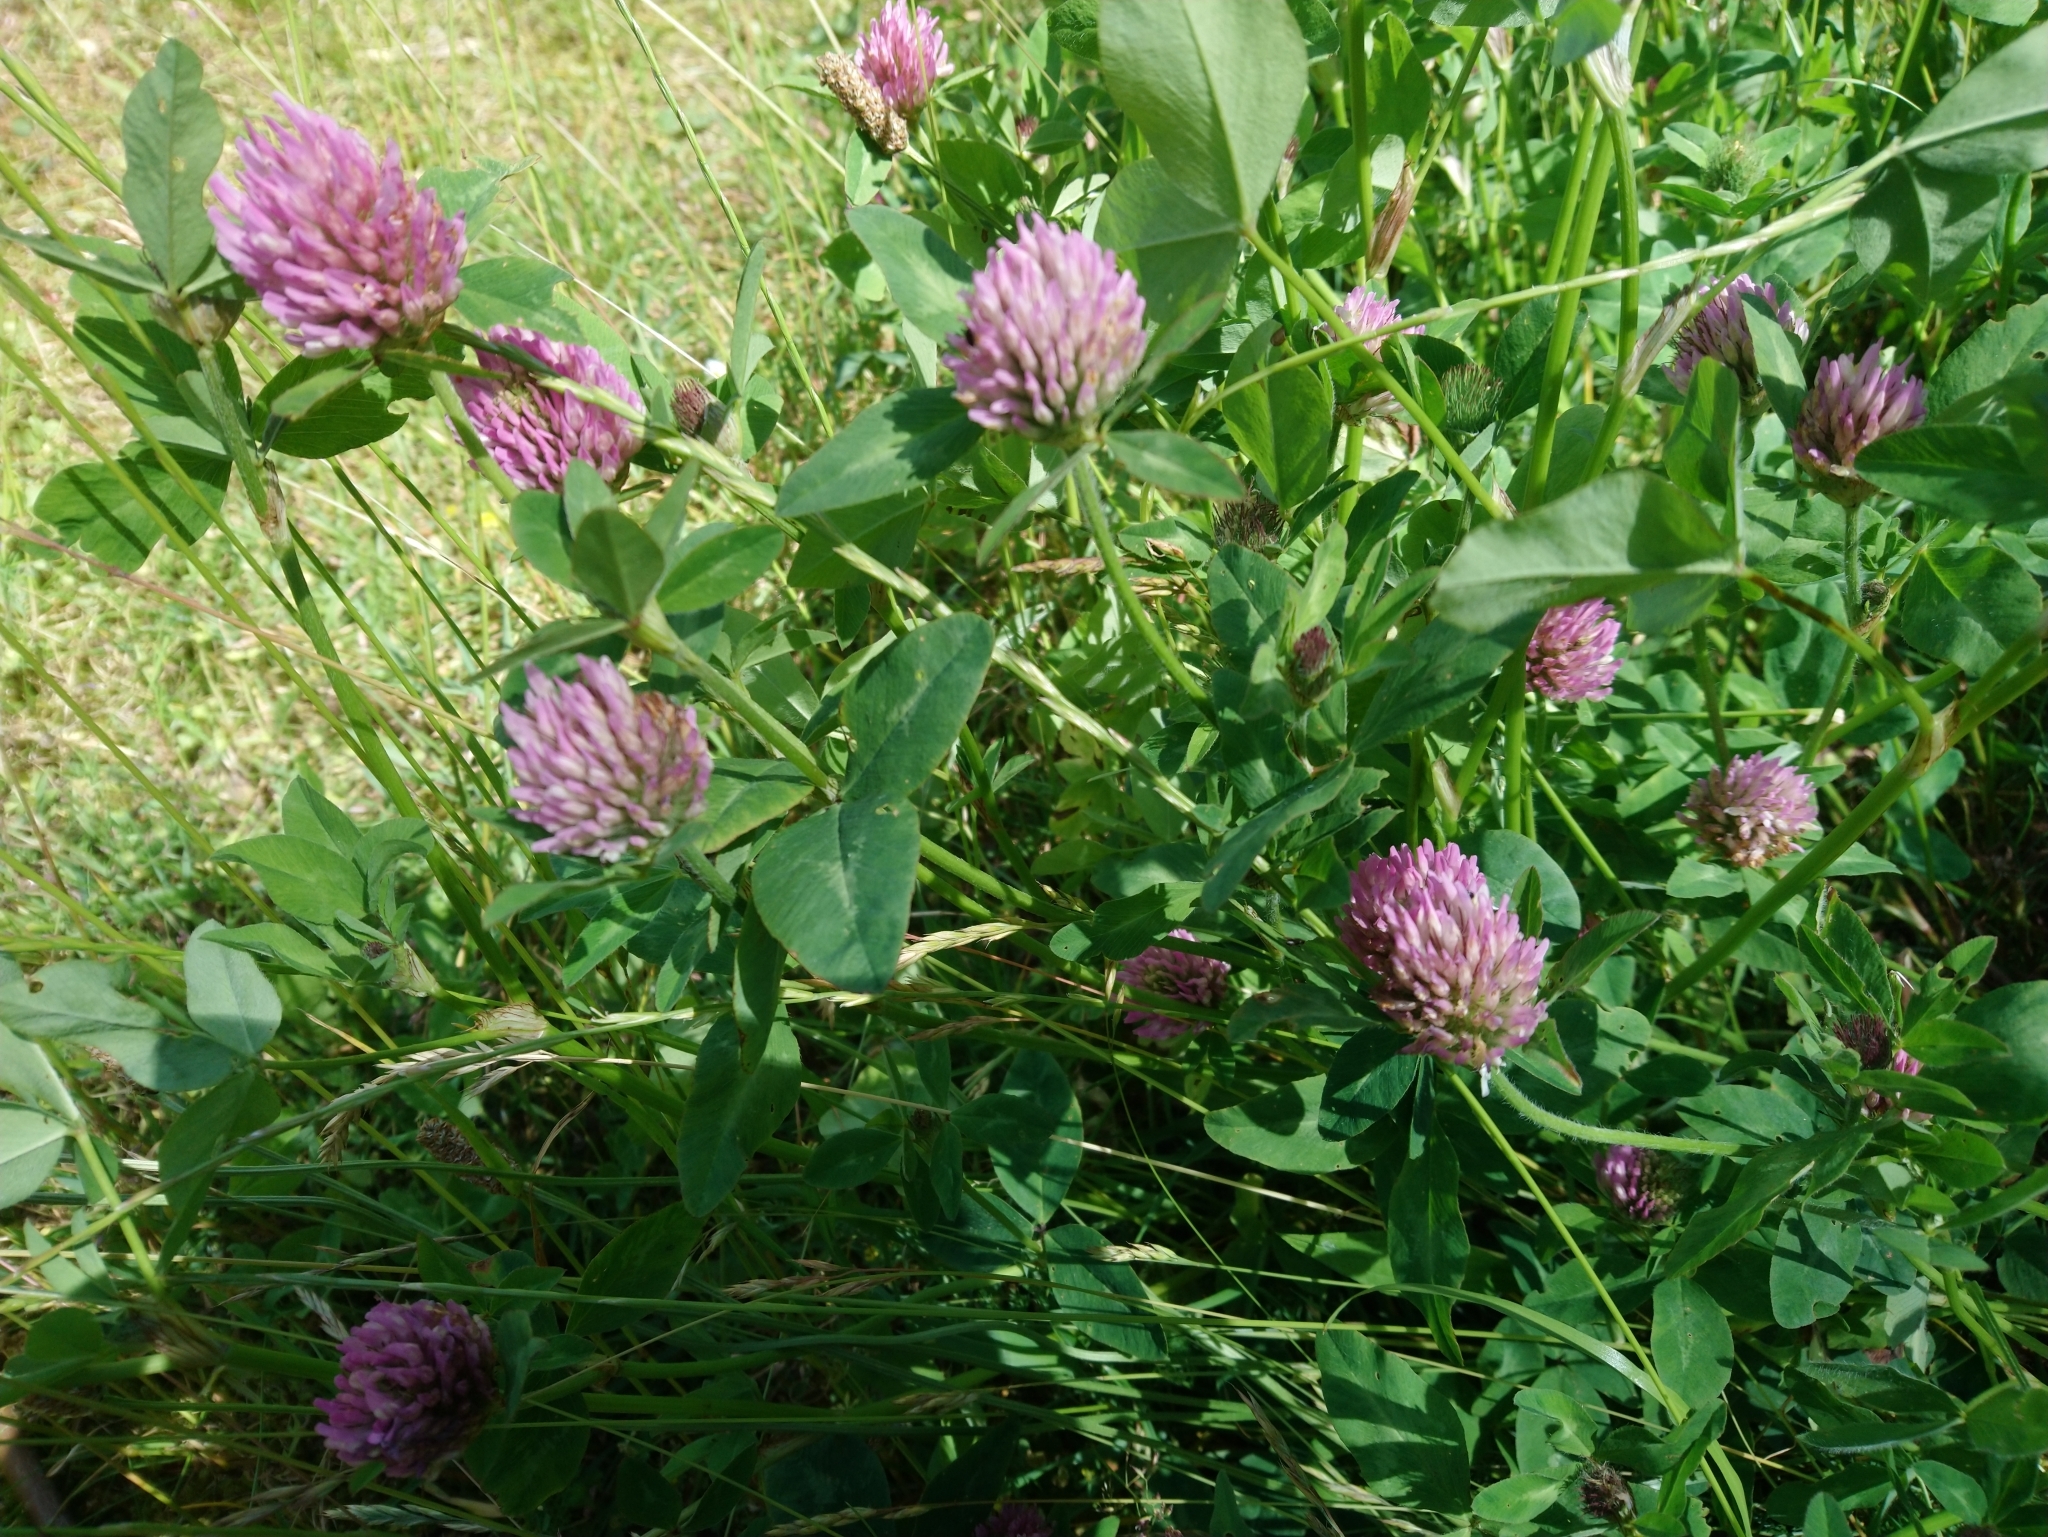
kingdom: Plantae
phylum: Tracheophyta
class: Magnoliopsida
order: Fabales
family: Fabaceae
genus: Trifolium
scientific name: Trifolium pratense
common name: Red clover
